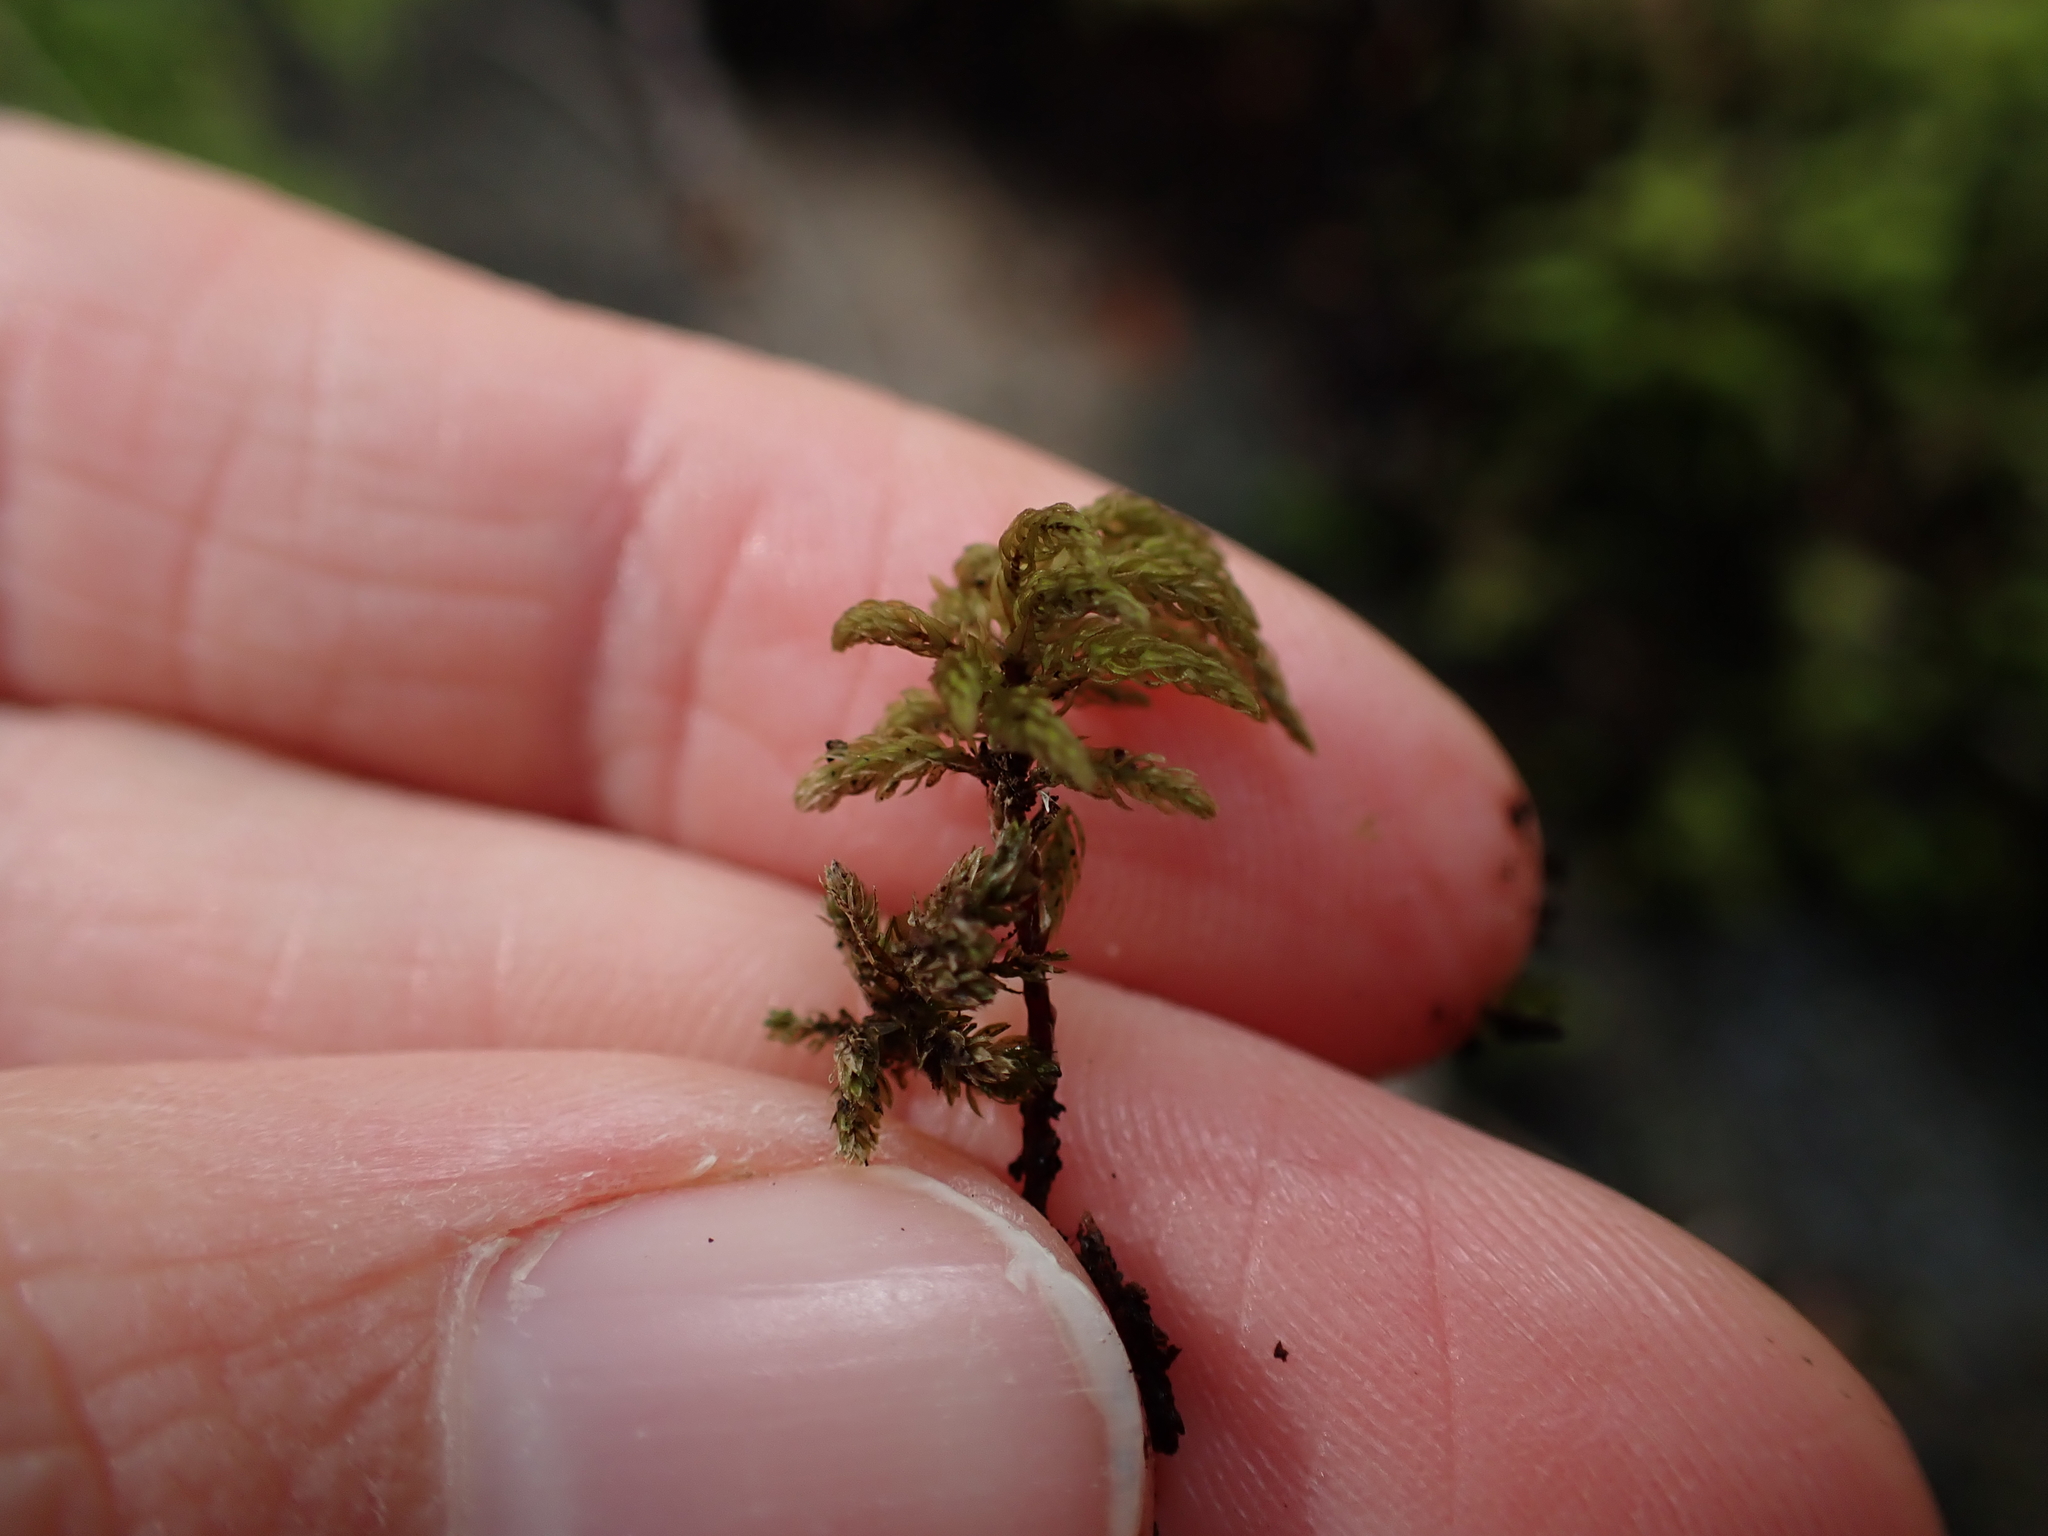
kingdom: Plantae
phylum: Bryophyta
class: Bryopsida
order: Bryales
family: Mniaceae
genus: Leucolepis
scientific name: Leucolepis acanthoneura
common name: Leucolepis umbrella moss
